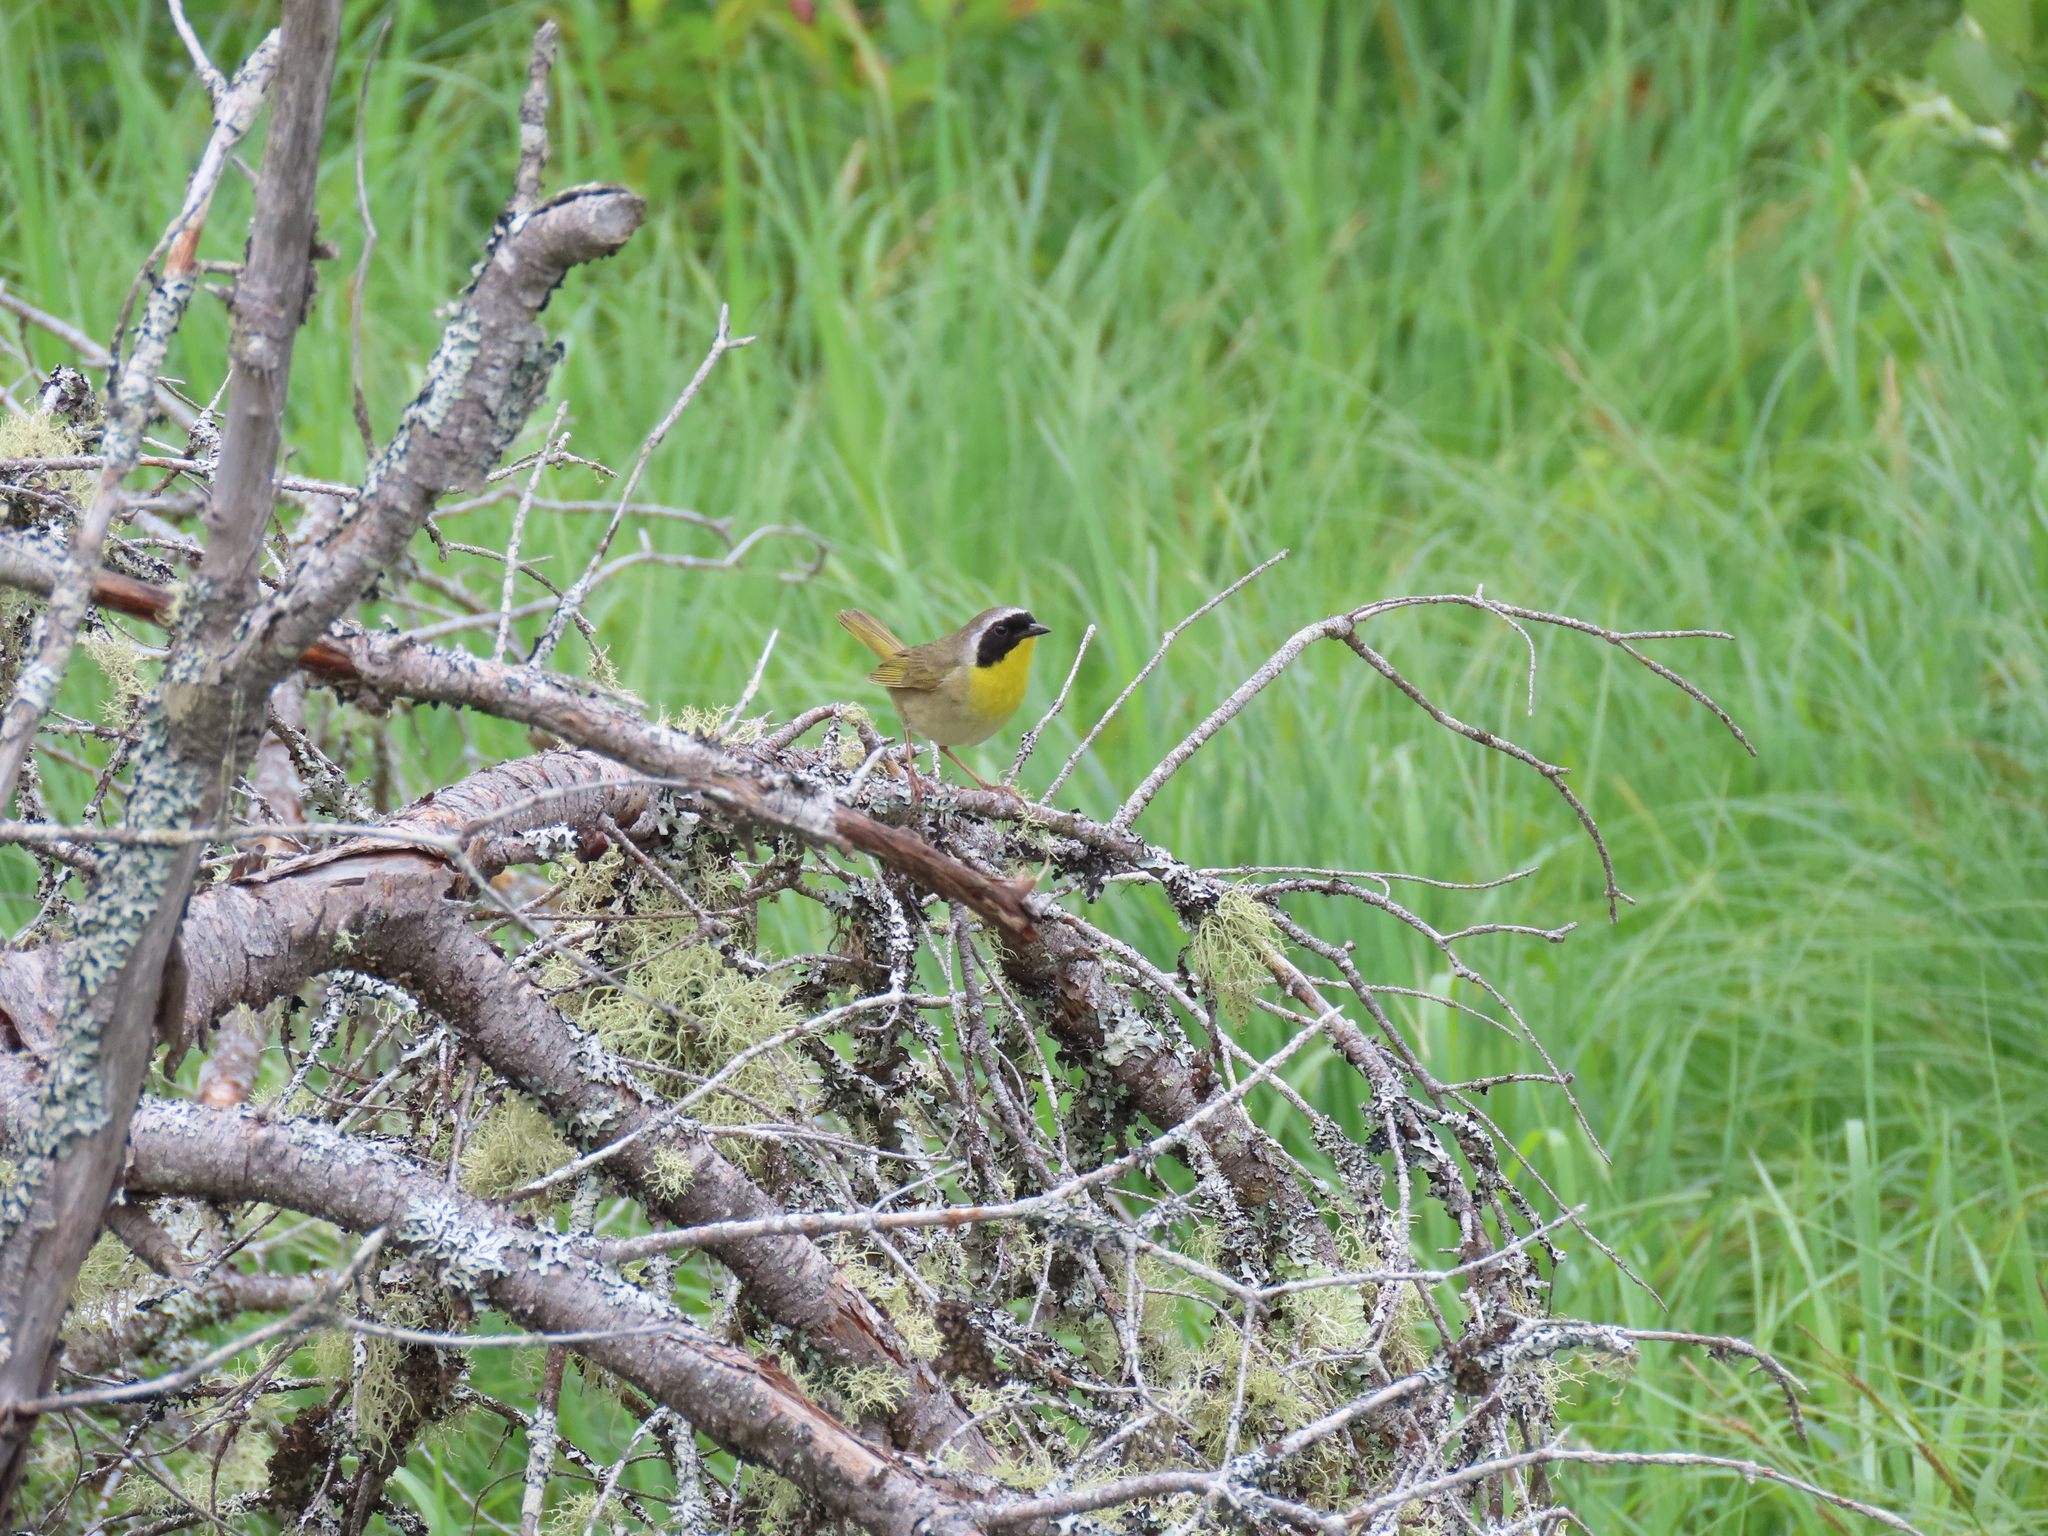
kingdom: Animalia
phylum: Chordata
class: Aves
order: Passeriformes
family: Parulidae
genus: Geothlypis
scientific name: Geothlypis trichas
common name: Common yellowthroat
